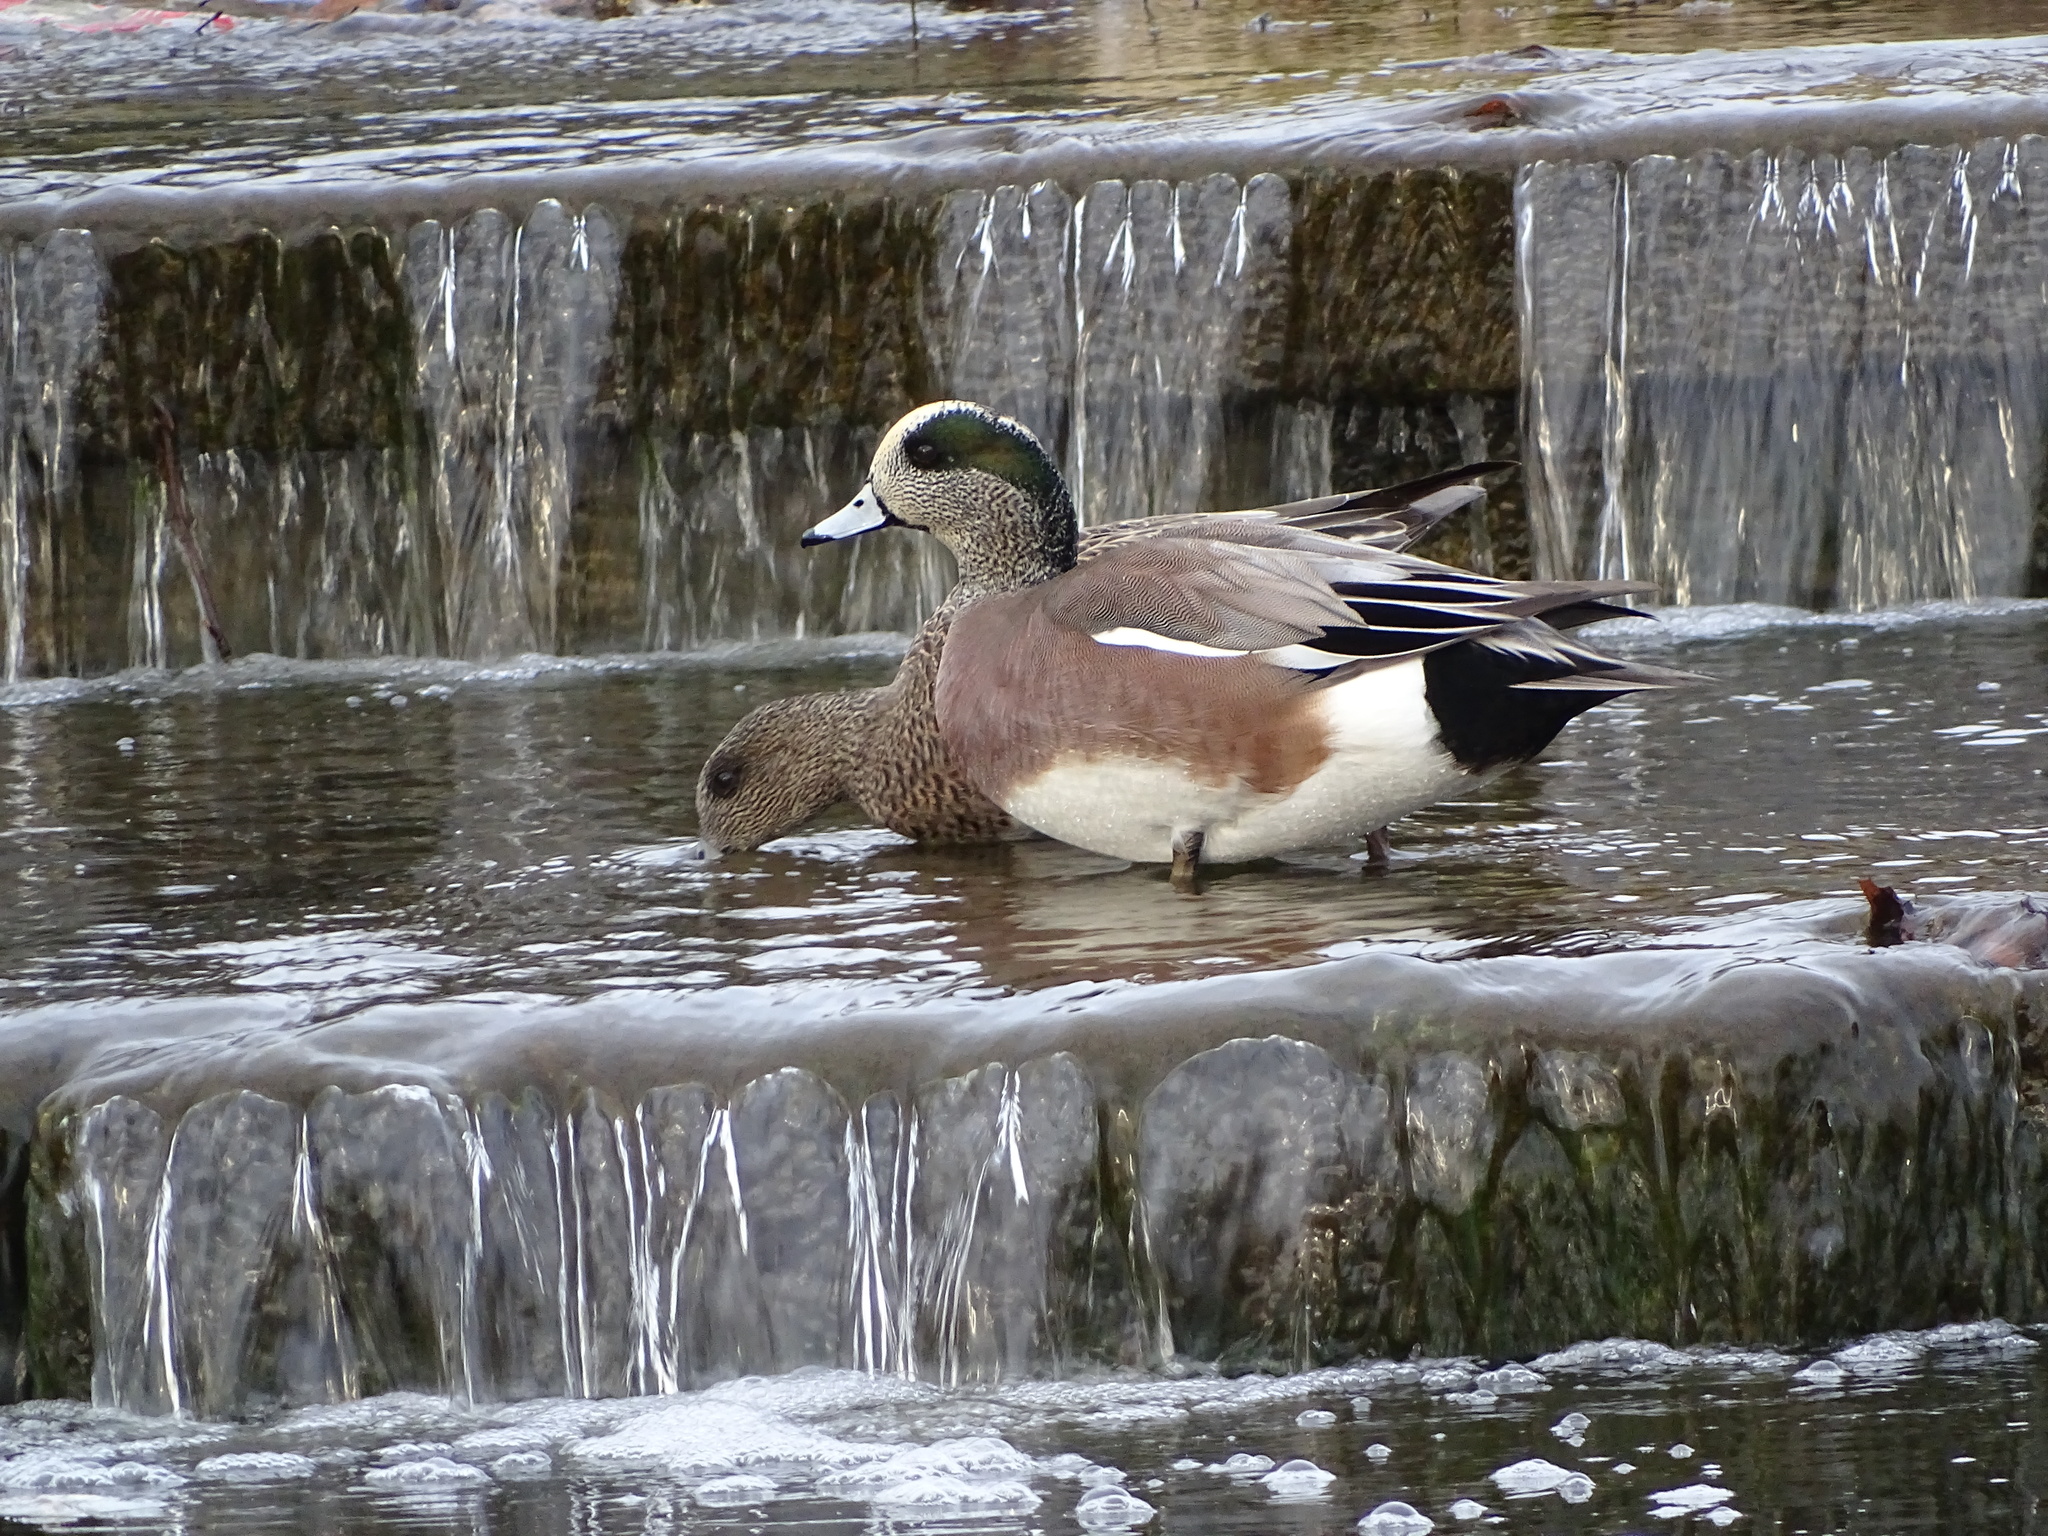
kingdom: Animalia
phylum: Chordata
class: Aves
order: Anseriformes
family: Anatidae
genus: Mareca
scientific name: Mareca americana
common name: American wigeon
